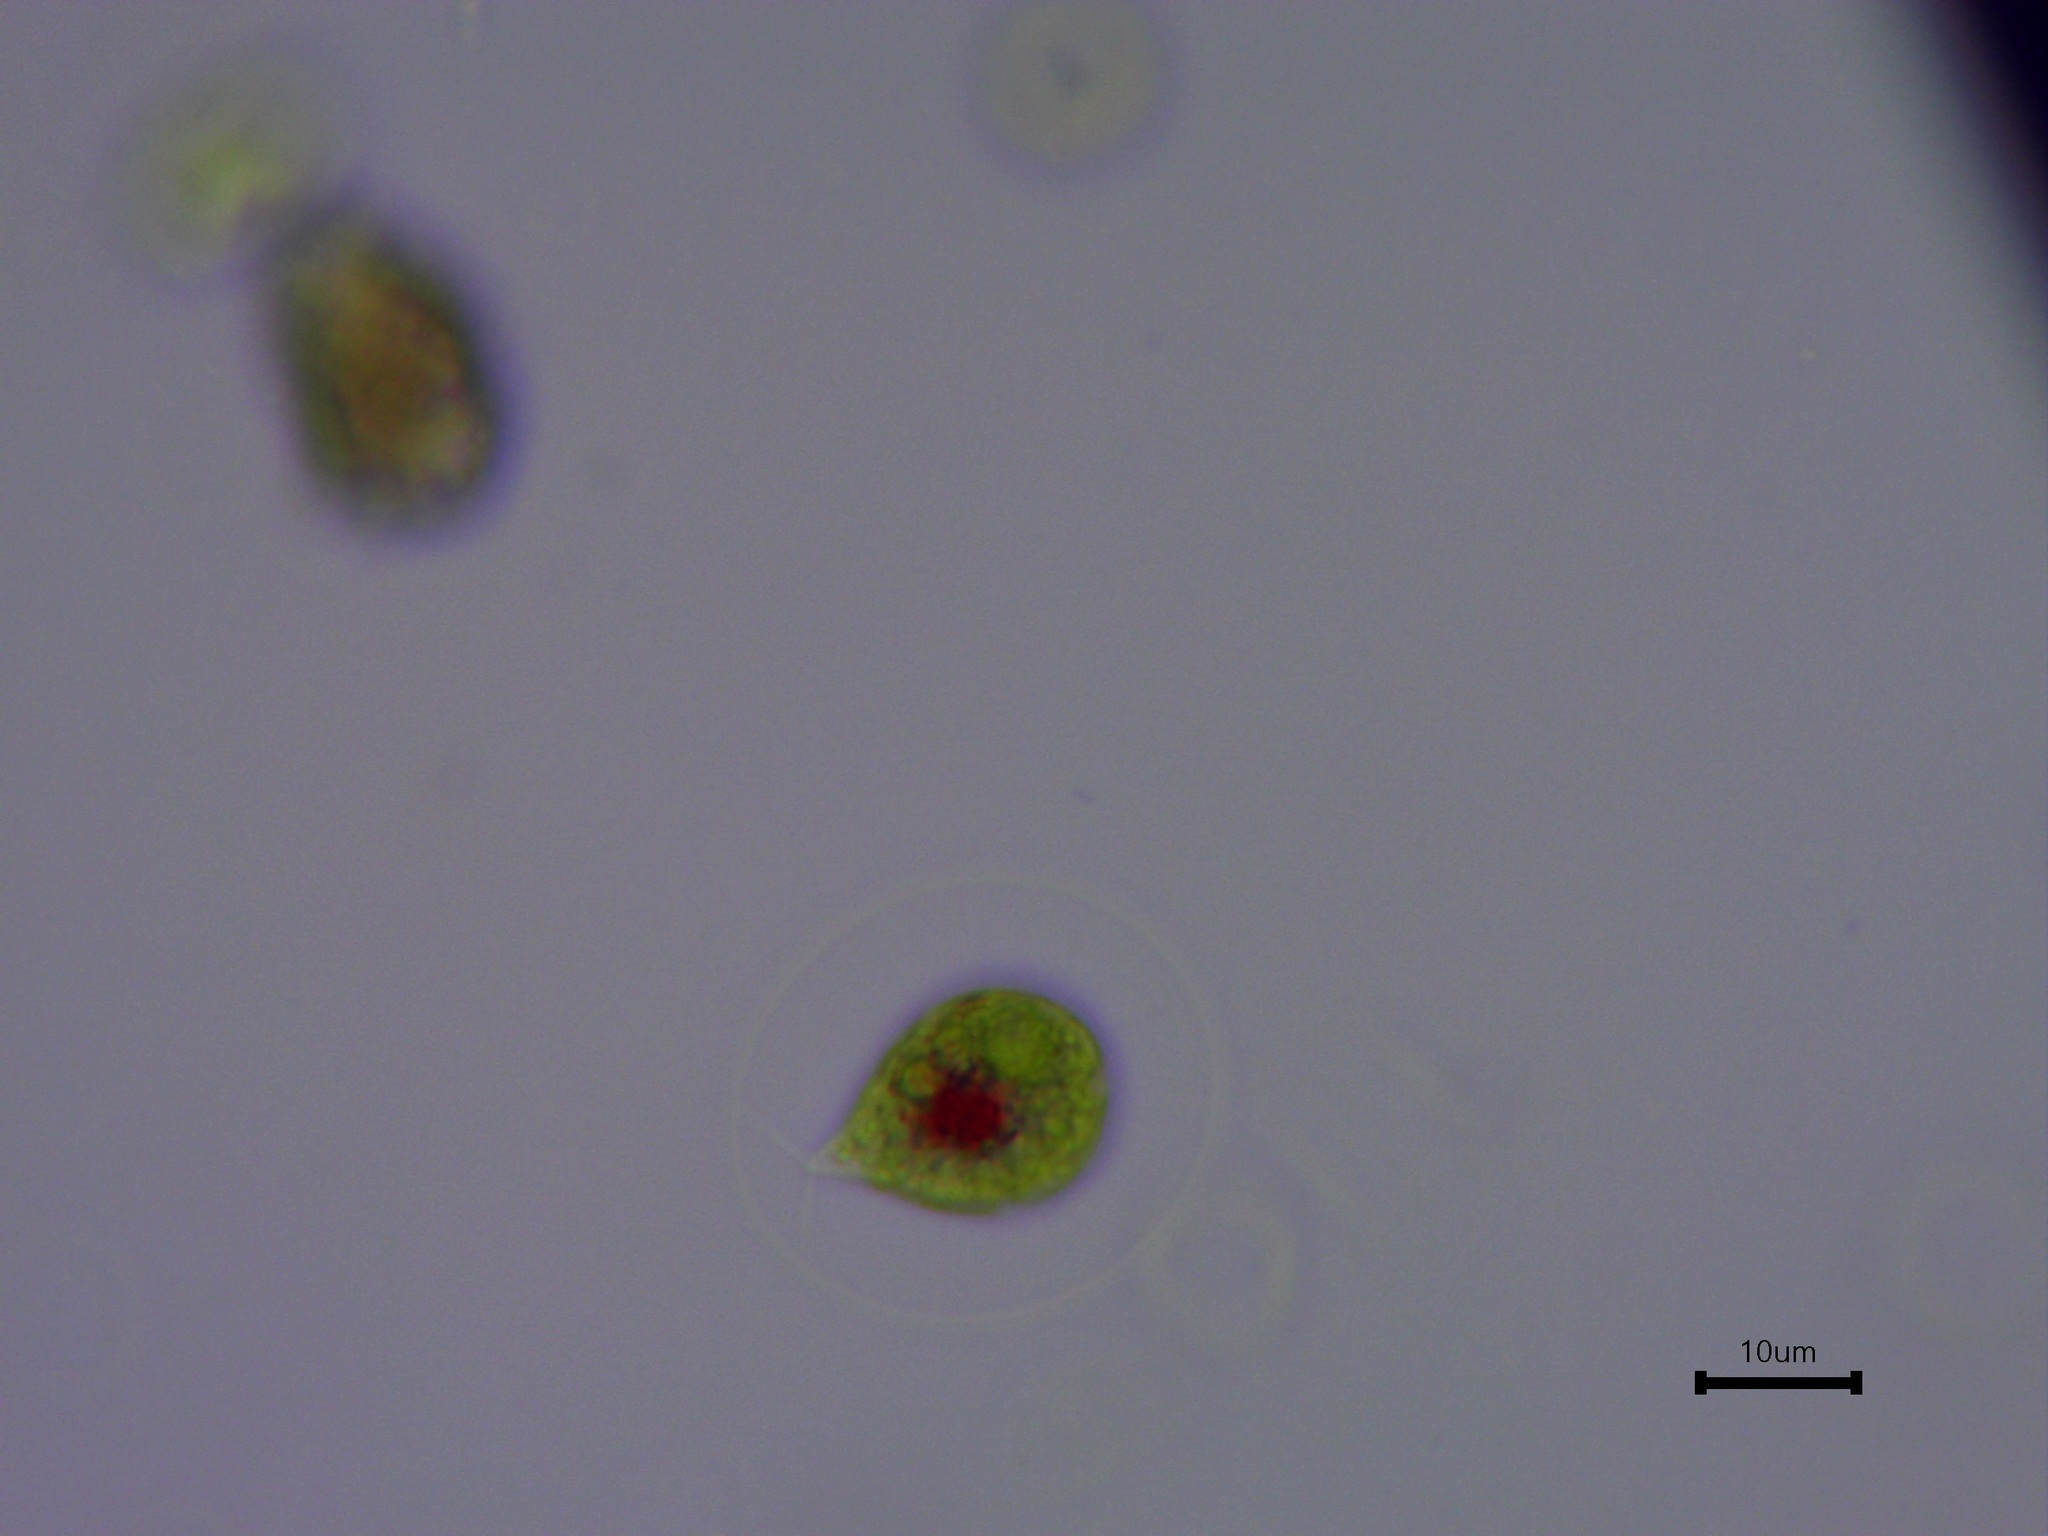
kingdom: Plantae
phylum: Chlorophyta
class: Chlorophyceae
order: Volvocales
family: Haematococcaceae
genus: Haematococcus
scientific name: Haematococcus lacustris
